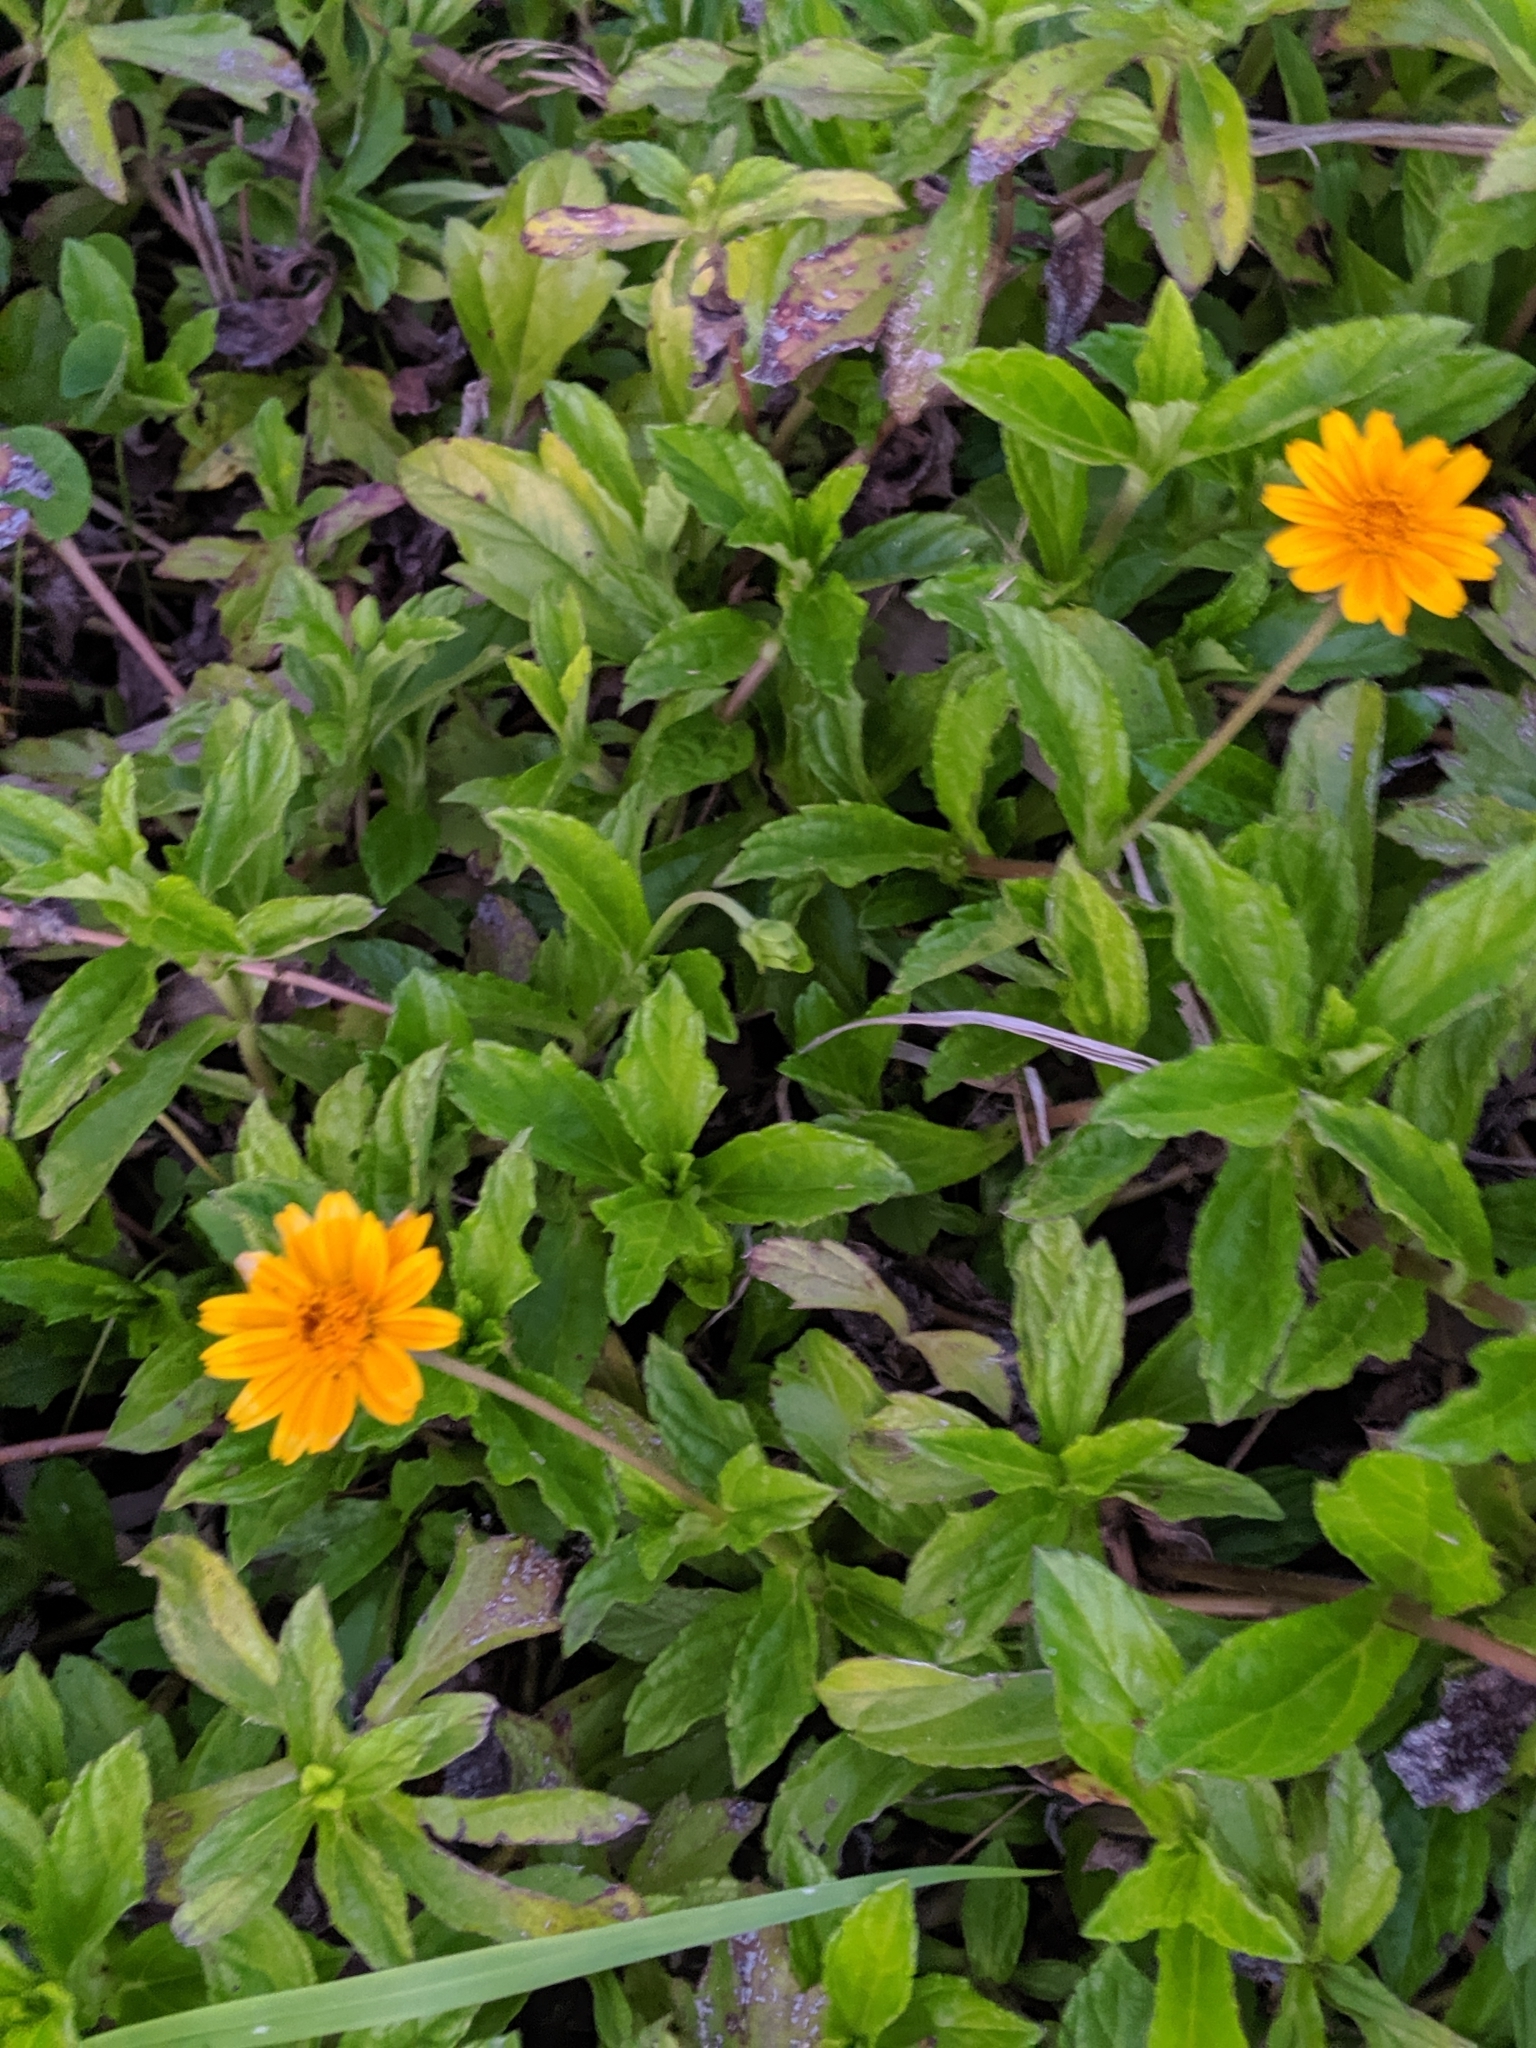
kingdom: Plantae
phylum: Tracheophyta
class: Magnoliopsida
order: Asterales
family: Asteraceae
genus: Sphagneticola
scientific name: Sphagneticola trilobata
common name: Bay biscayne creeping-oxeye
